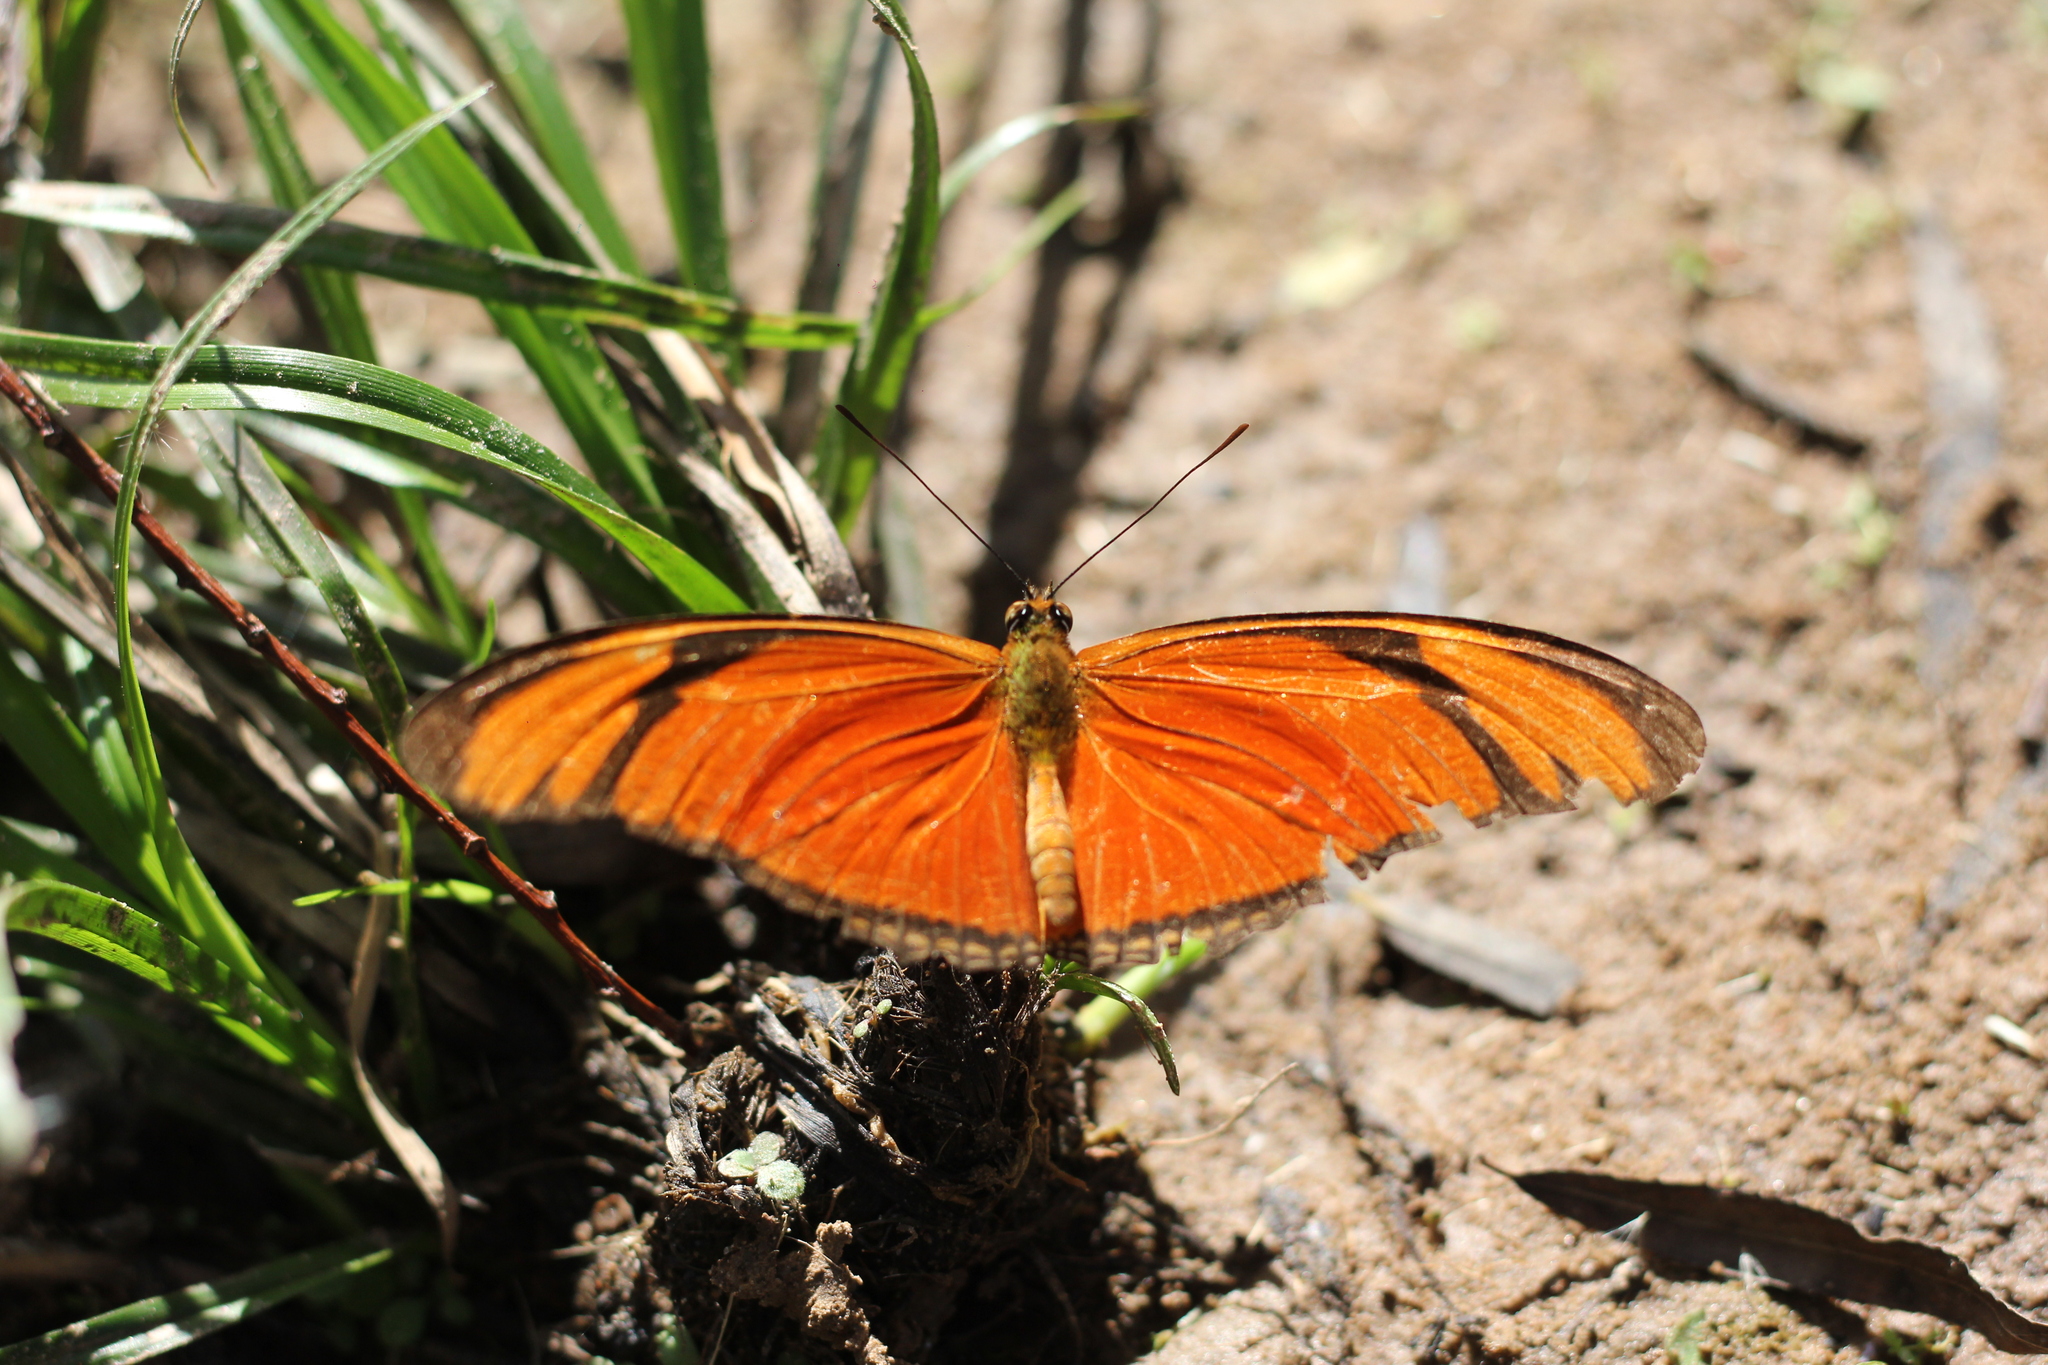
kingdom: Animalia
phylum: Arthropoda
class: Insecta
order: Lepidoptera
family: Nymphalidae
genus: Dryas
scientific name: Dryas iulia
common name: Flambeau
